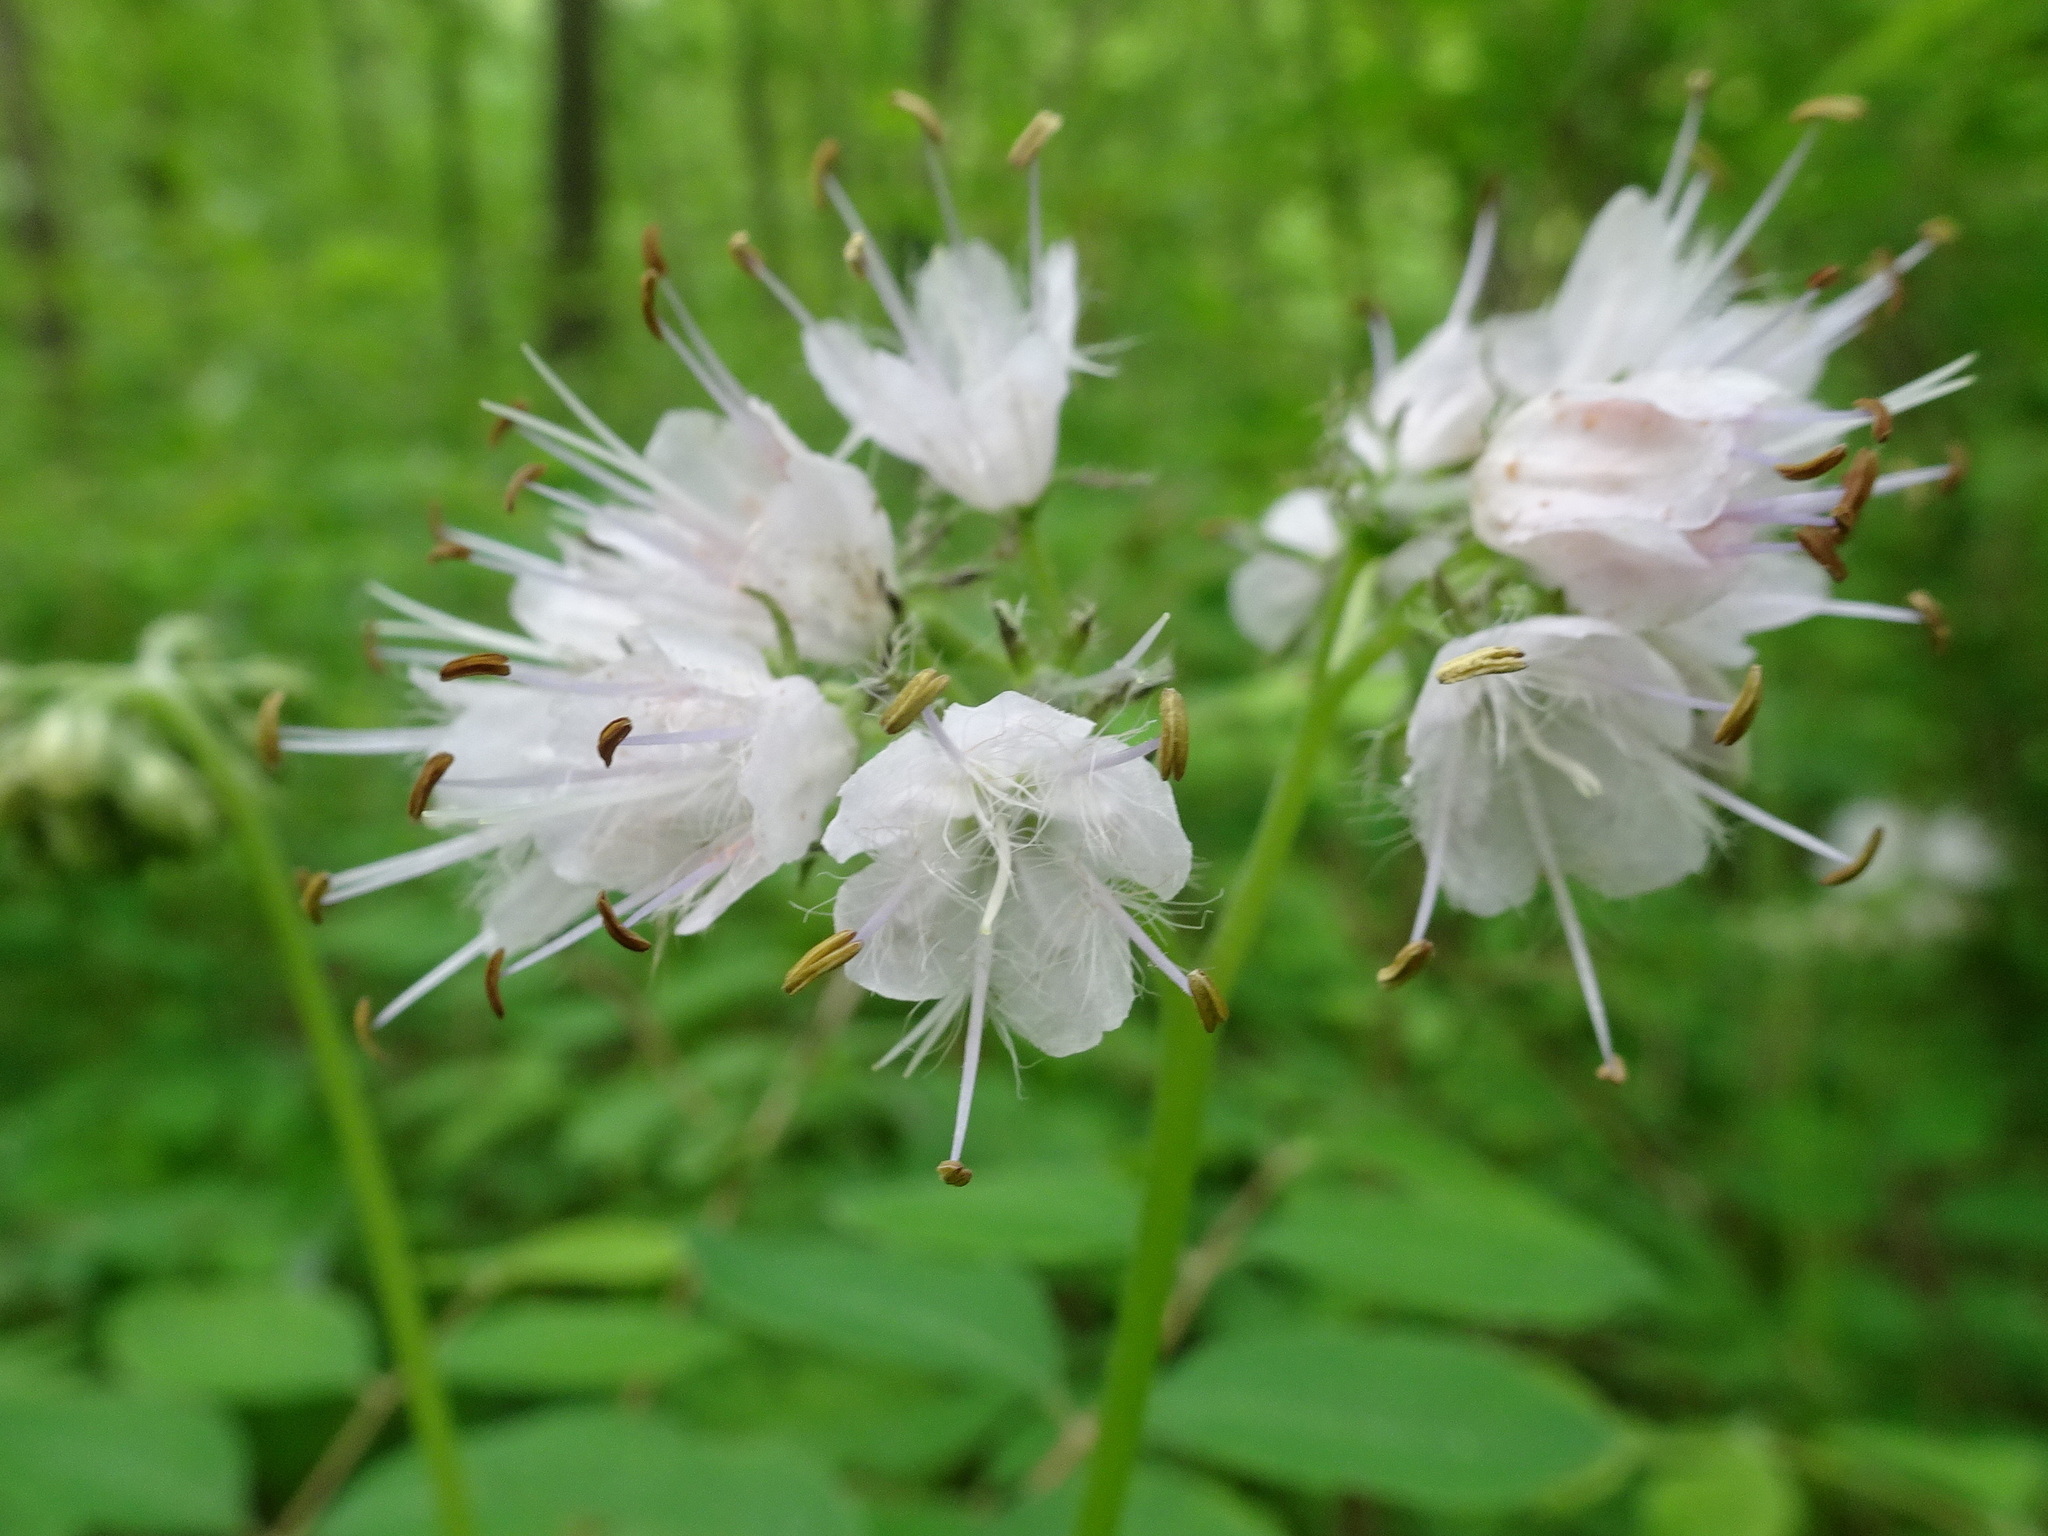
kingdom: Plantae
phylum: Tracheophyta
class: Magnoliopsida
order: Boraginales
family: Hydrophyllaceae
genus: Hydrophyllum
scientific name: Hydrophyllum virginianum
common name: Virginia waterleaf
